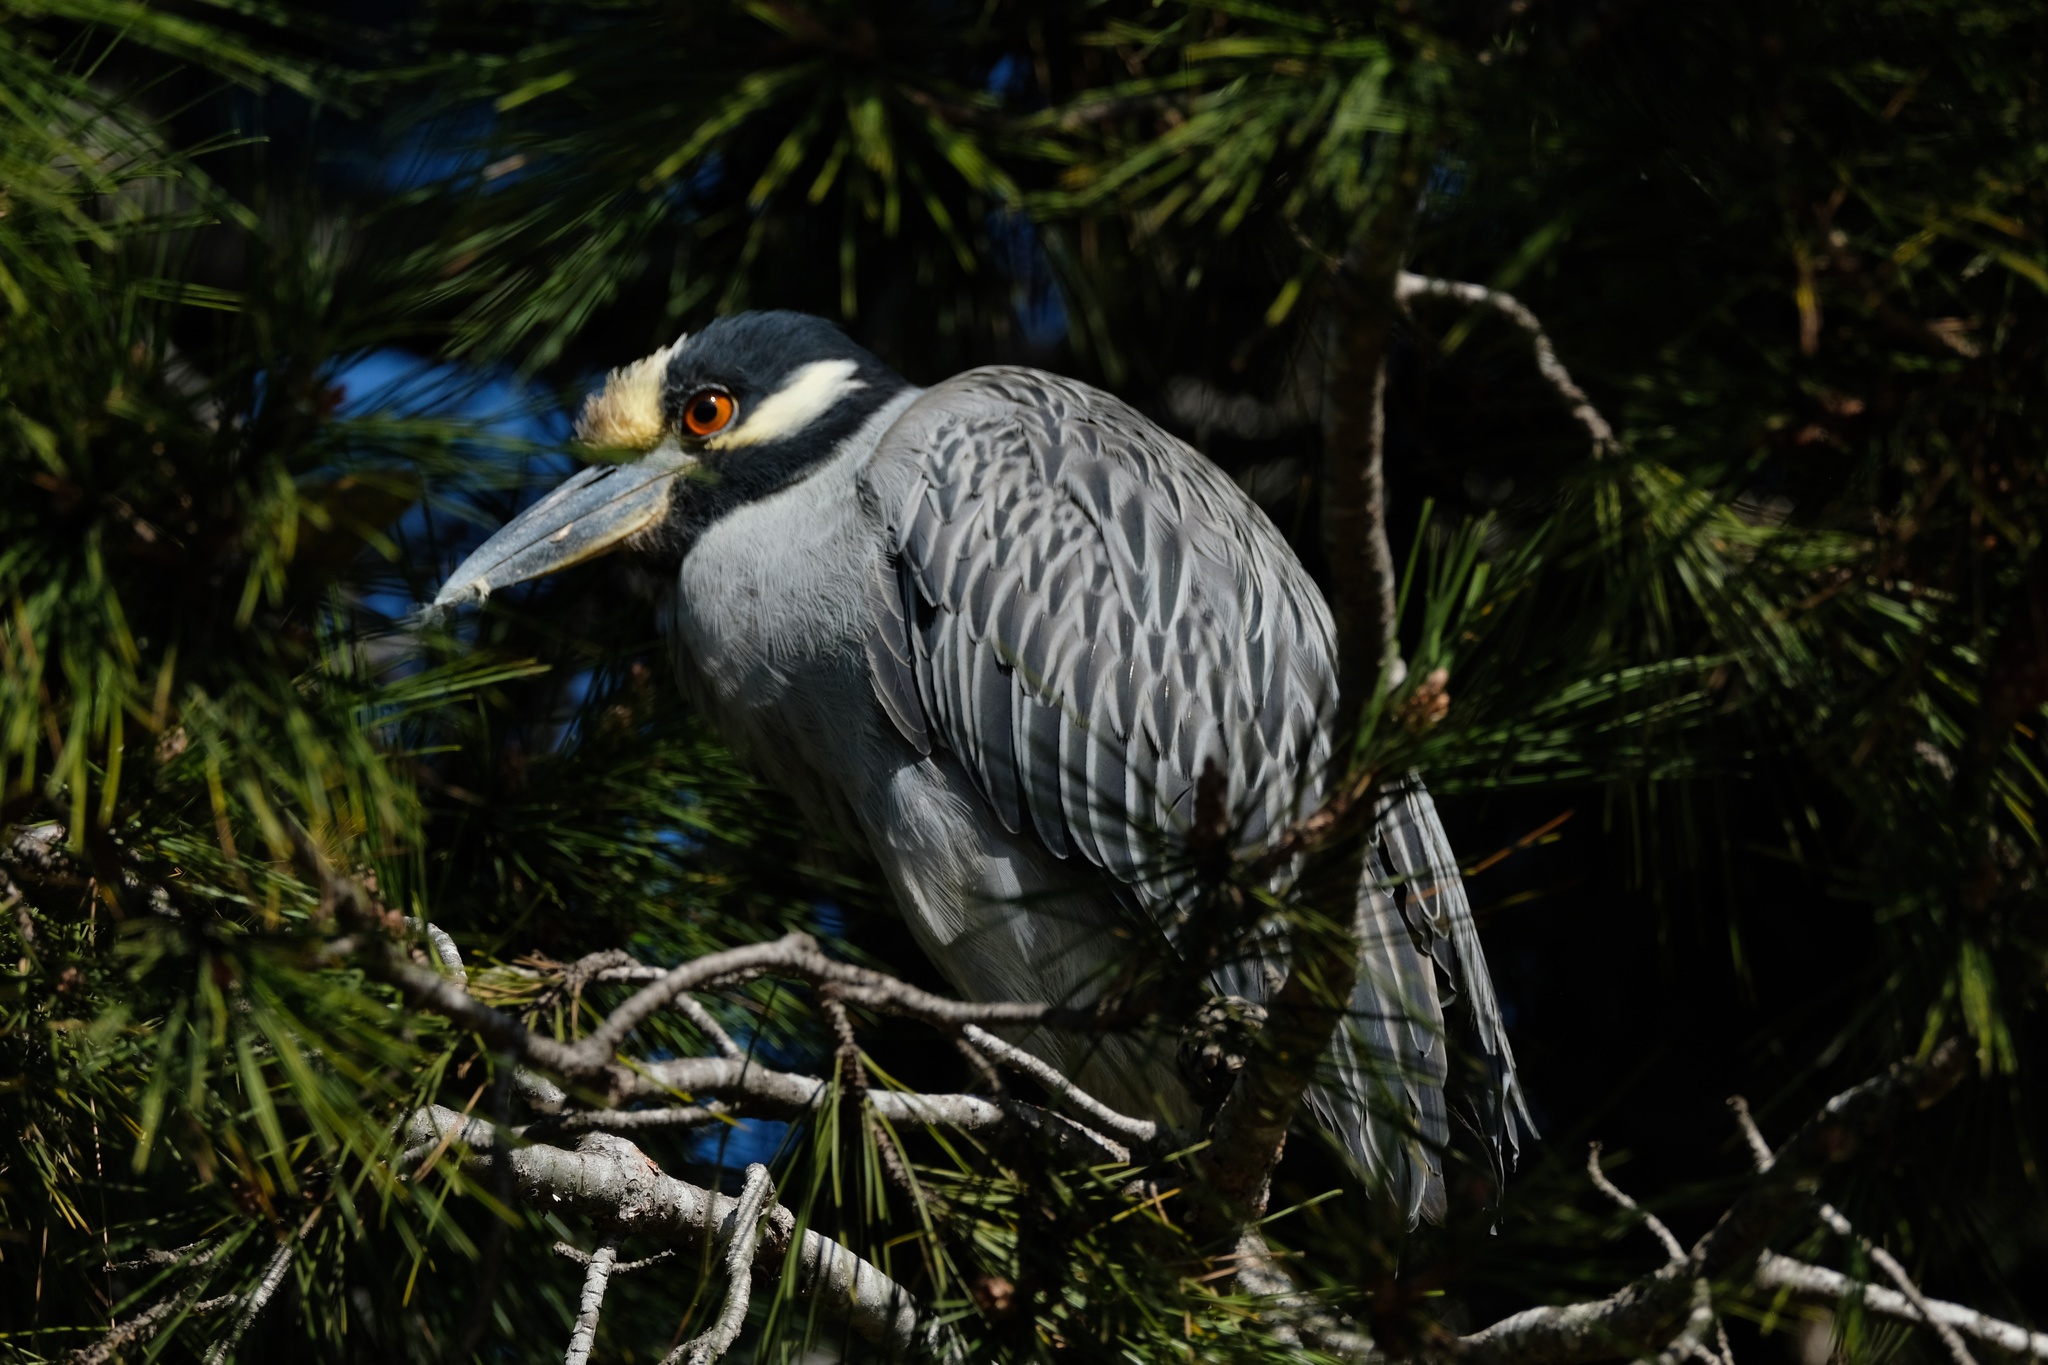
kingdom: Animalia
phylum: Chordata
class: Aves
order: Pelecaniformes
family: Ardeidae
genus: Nyctanassa
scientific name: Nyctanassa violacea
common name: Yellow-crowned night heron
